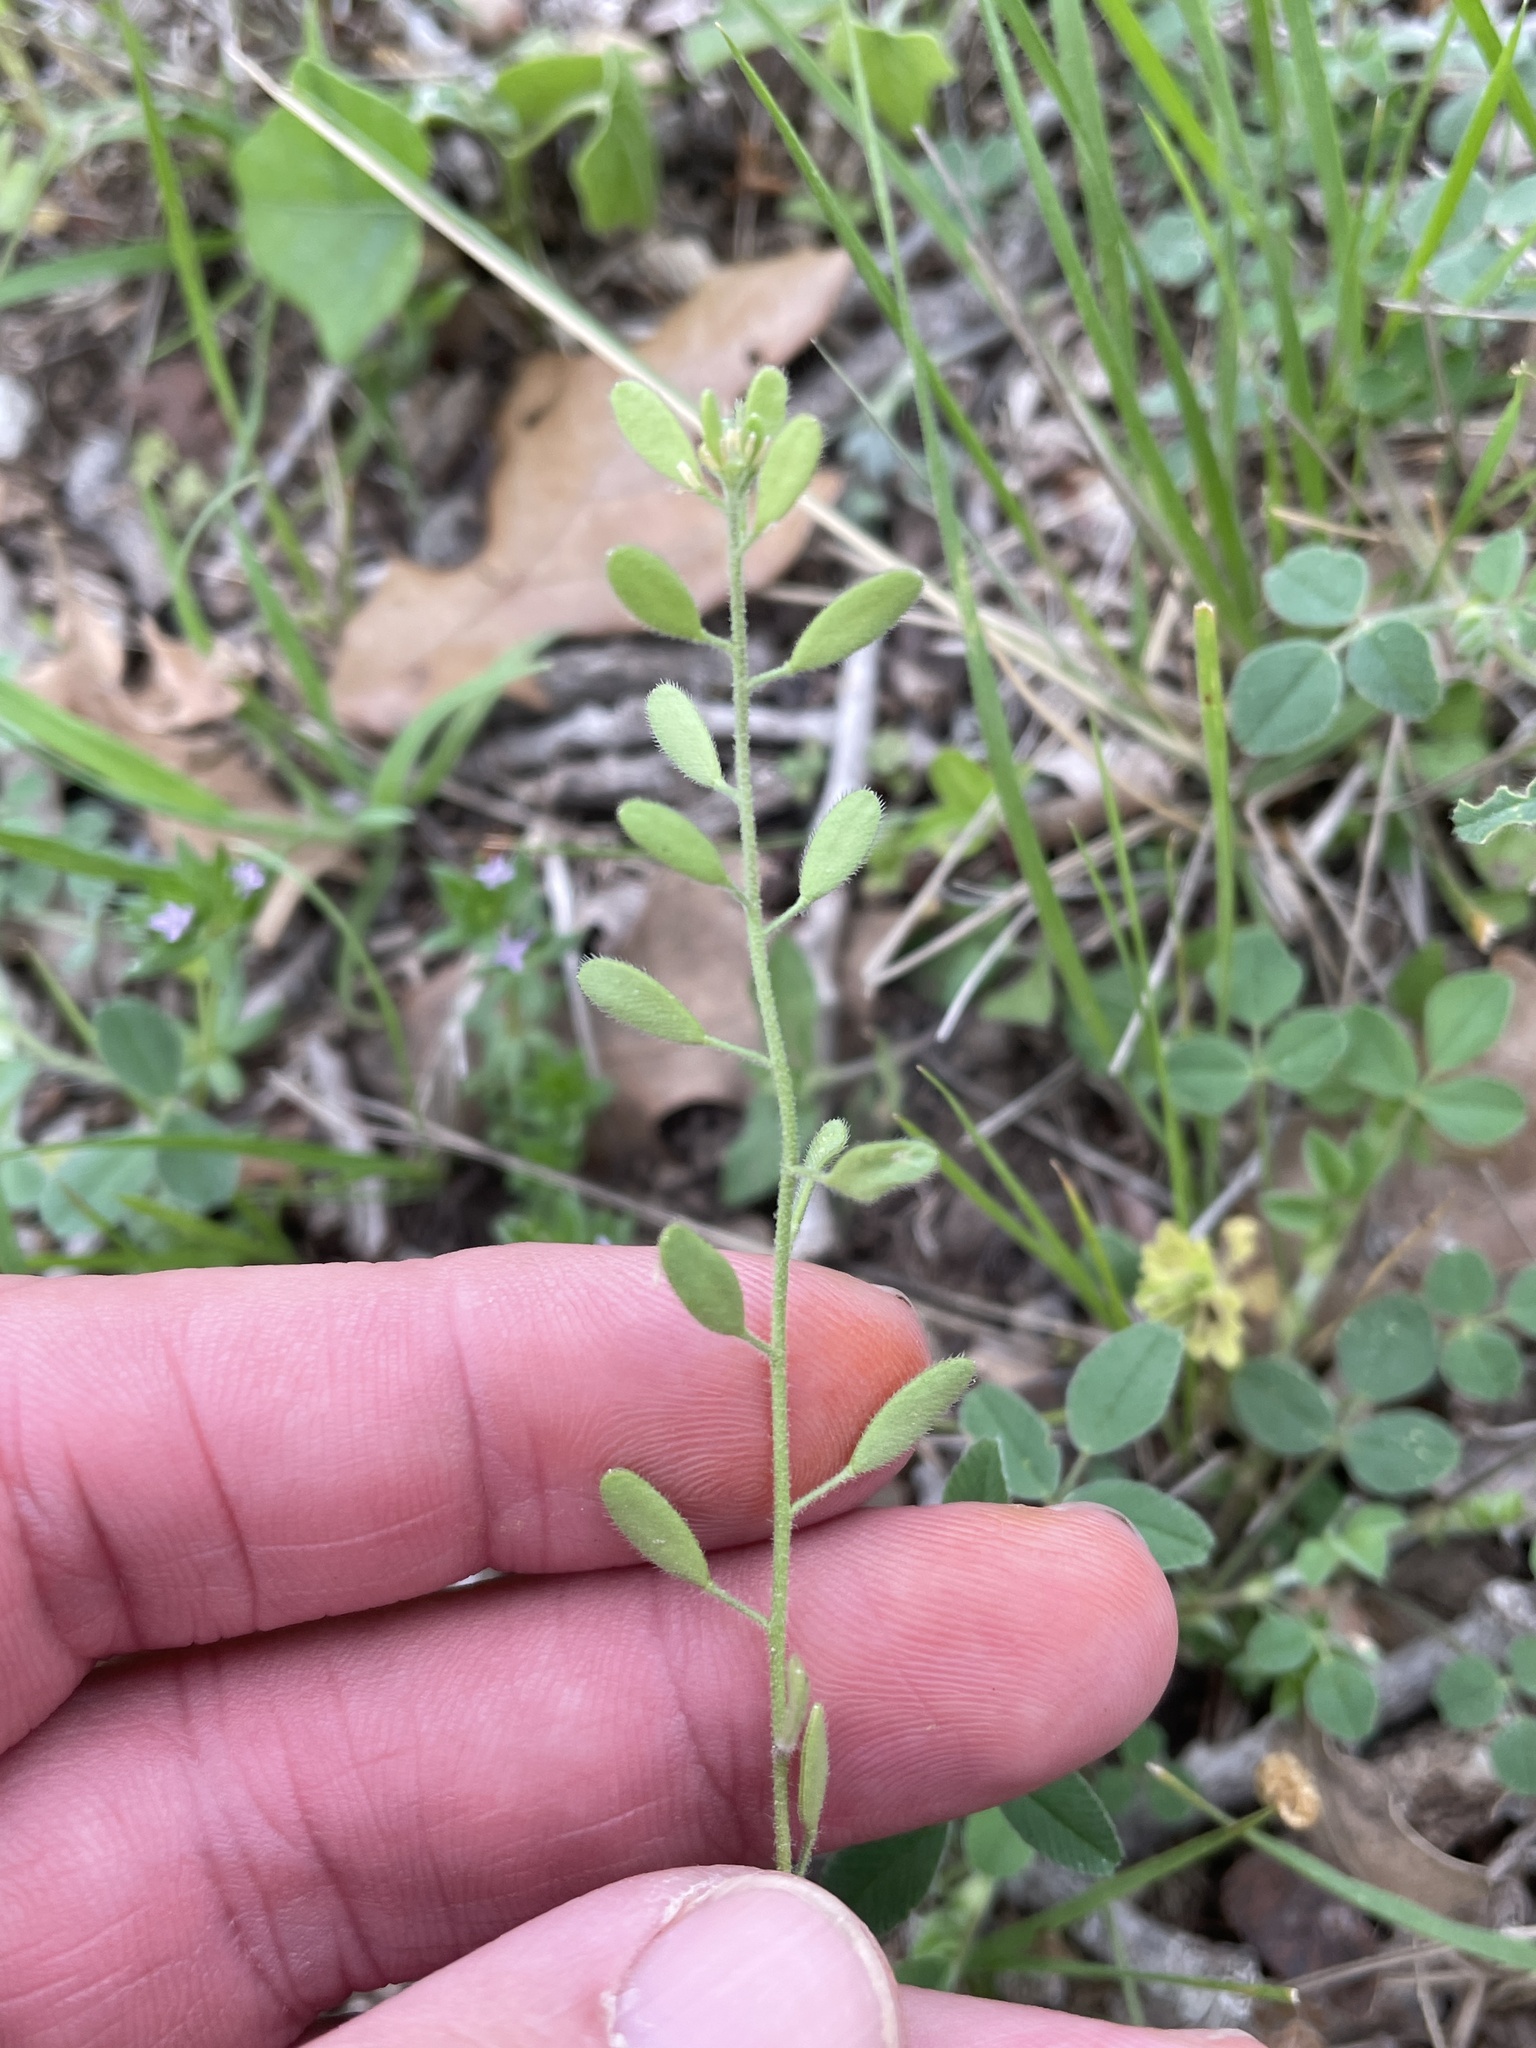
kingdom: Plantae
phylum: Tracheophyta
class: Magnoliopsida
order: Brassicales
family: Brassicaceae
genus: Tomostima
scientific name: Tomostima platycarpa
